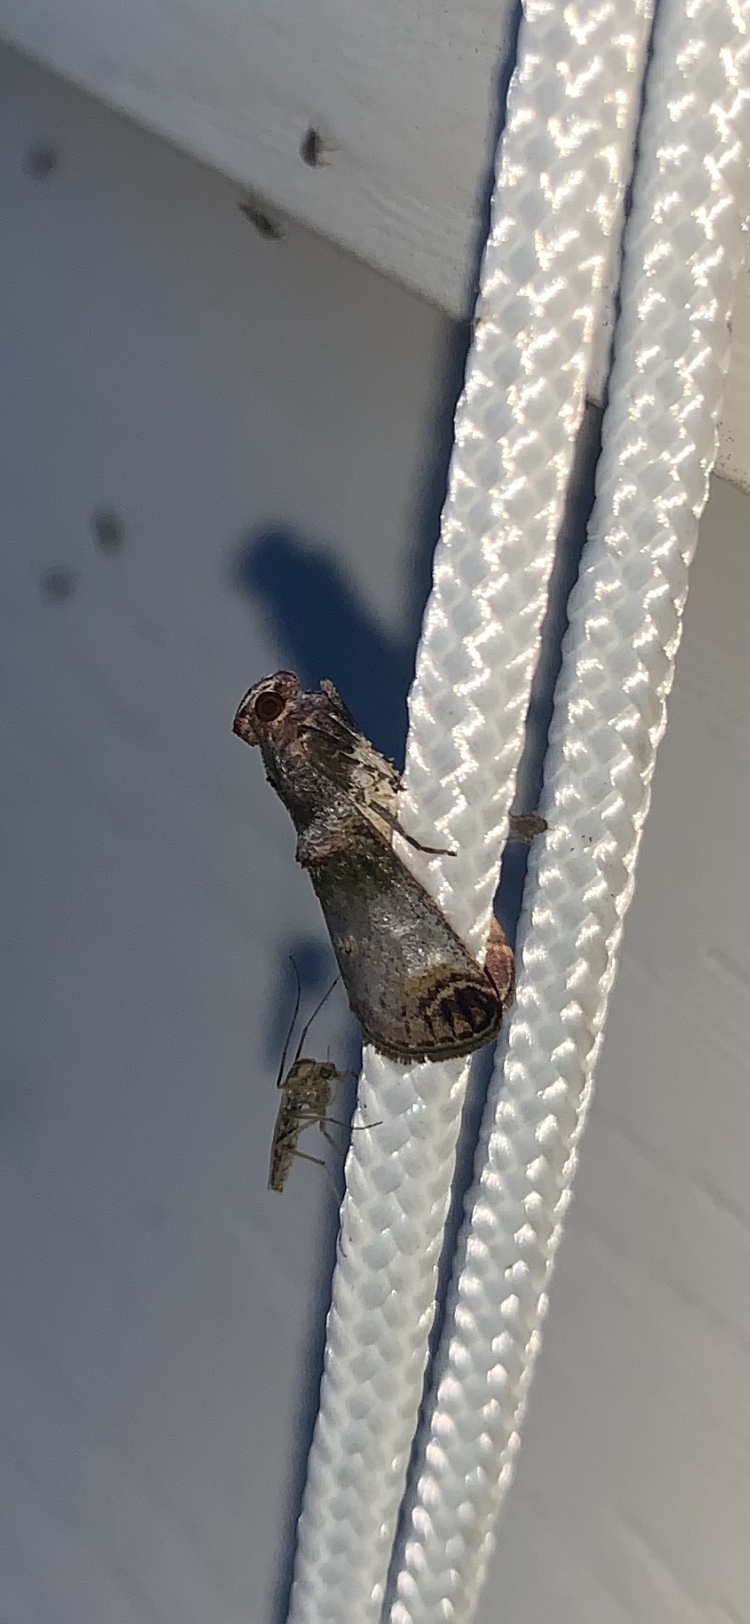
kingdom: Animalia
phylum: Arthropoda
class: Insecta
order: Lepidoptera
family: Pyralidae
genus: Oneida
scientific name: Oneida lunulalis
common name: Orange-tufted oneida moth
